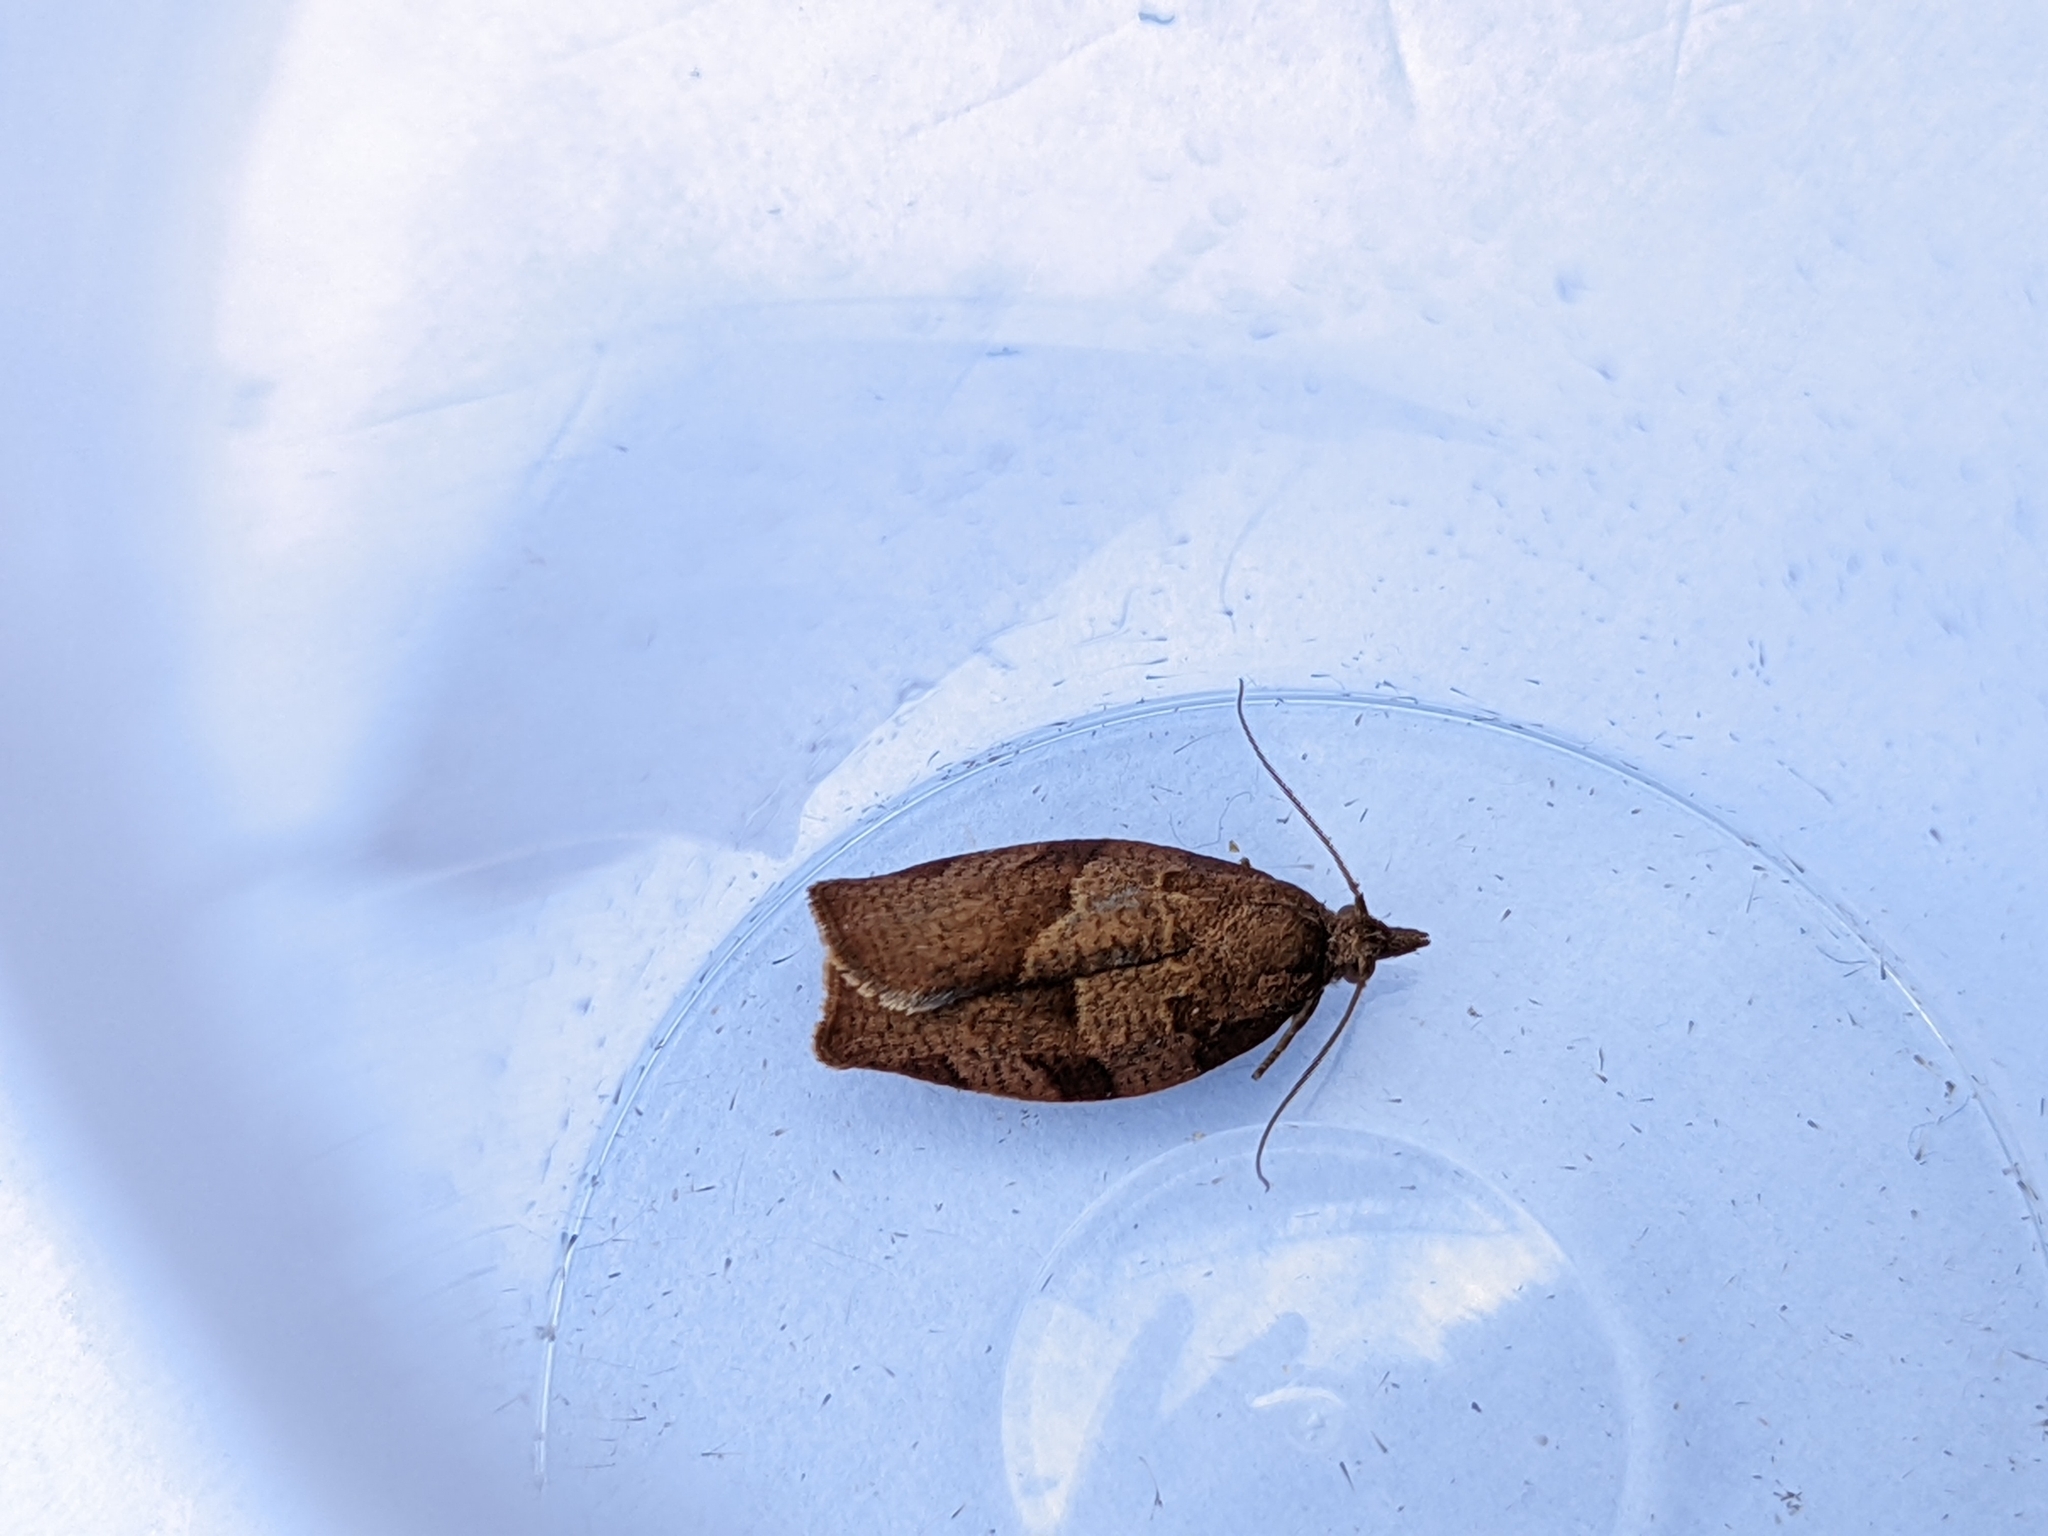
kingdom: Animalia
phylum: Arthropoda
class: Insecta
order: Lepidoptera
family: Tortricidae
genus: Pandemis
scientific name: Pandemis heparana
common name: Dark fruit-tree tortrix
